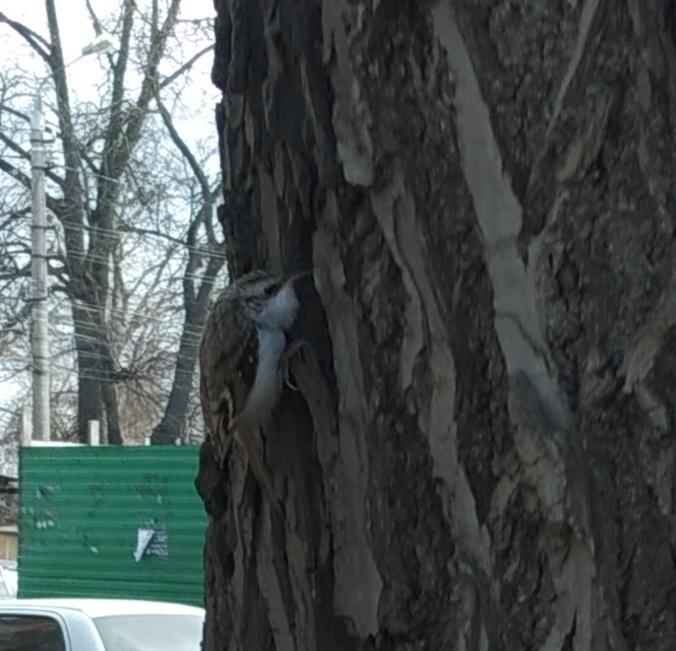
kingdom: Animalia
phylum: Chordata
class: Aves
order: Passeriformes
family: Certhiidae
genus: Certhia
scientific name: Certhia familiaris
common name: Eurasian treecreeper
